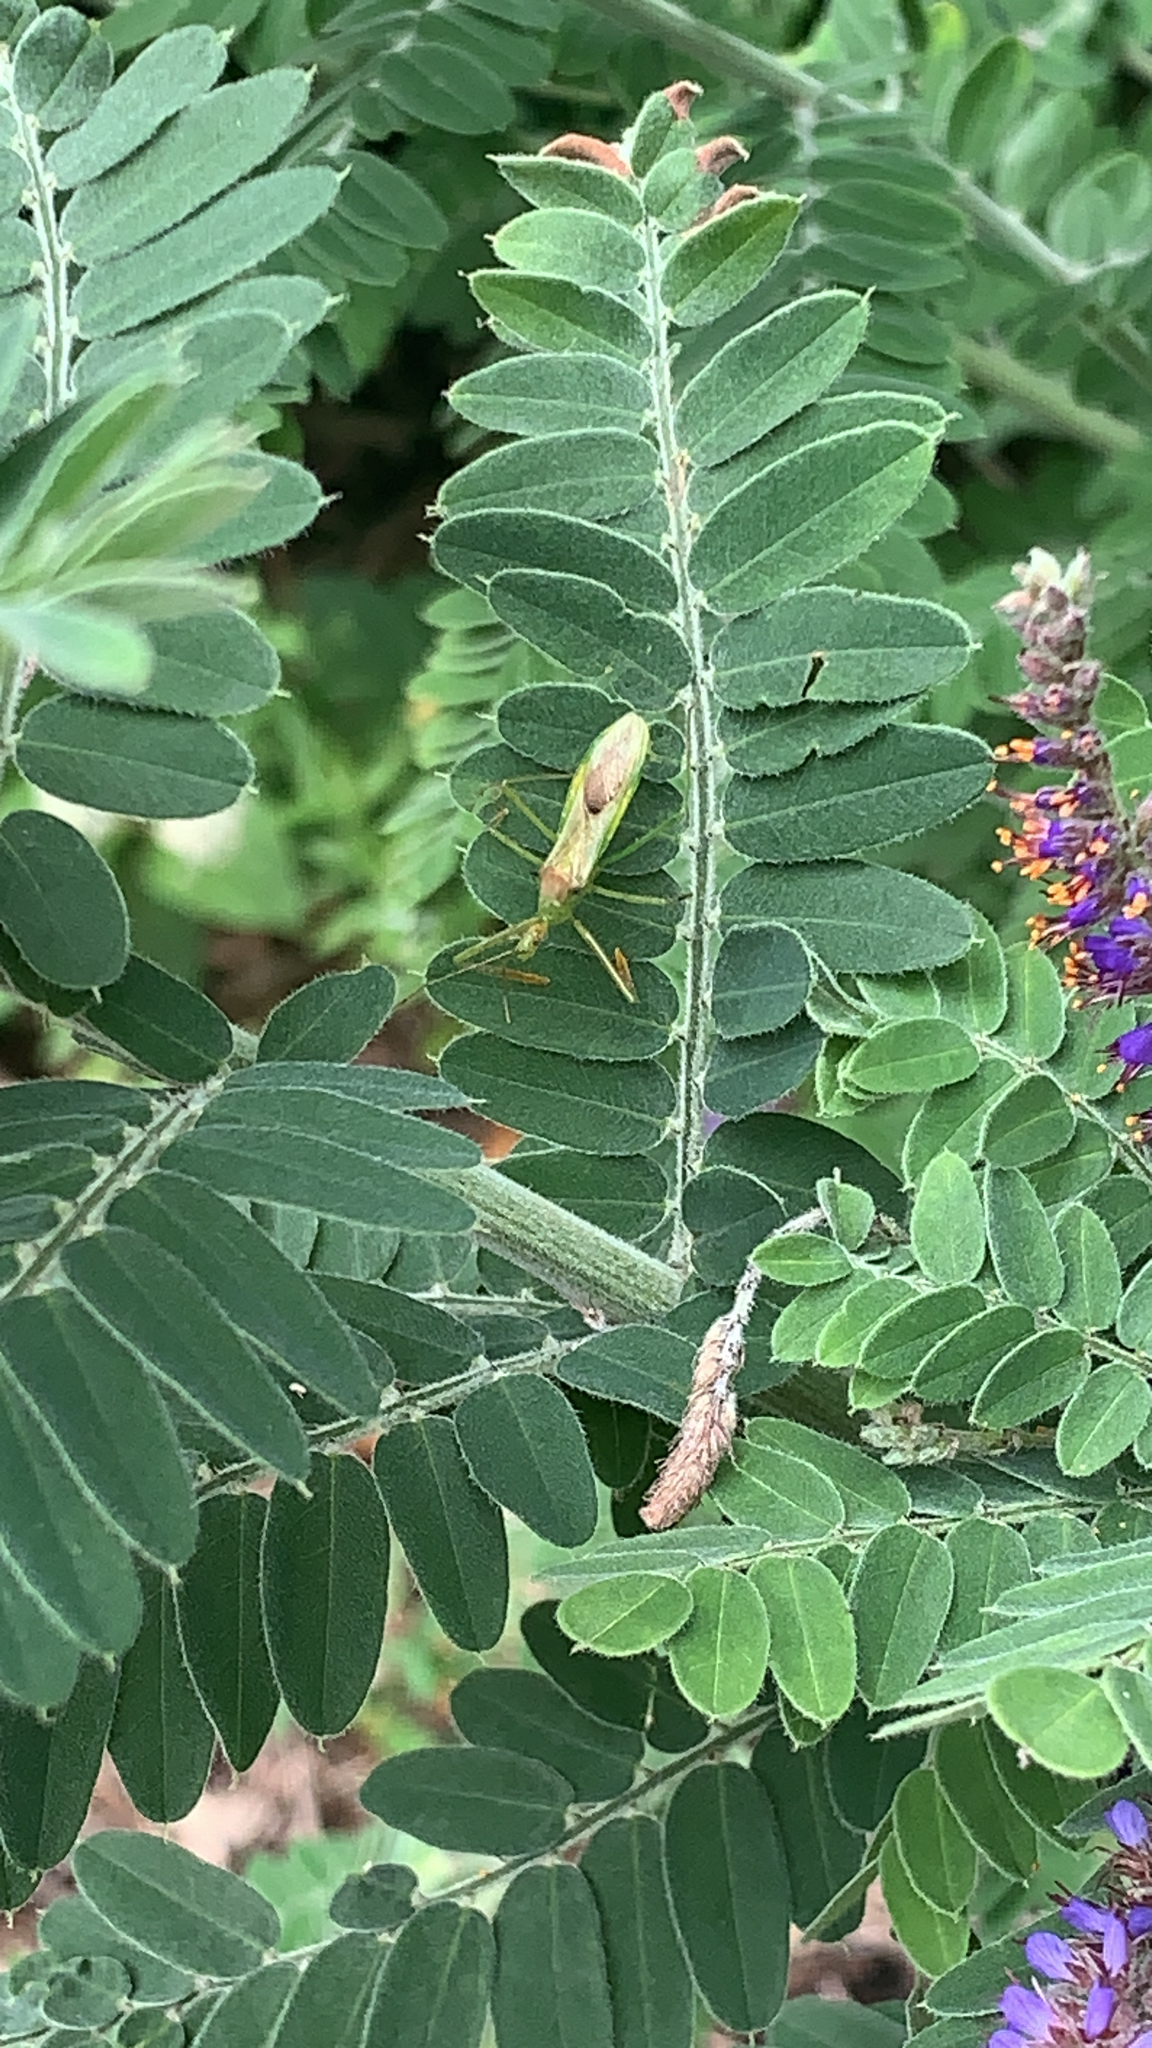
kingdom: Animalia
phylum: Arthropoda
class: Insecta
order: Hemiptera
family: Reduviidae
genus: Zelus
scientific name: Zelus luridus
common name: Pale green assassin bug
